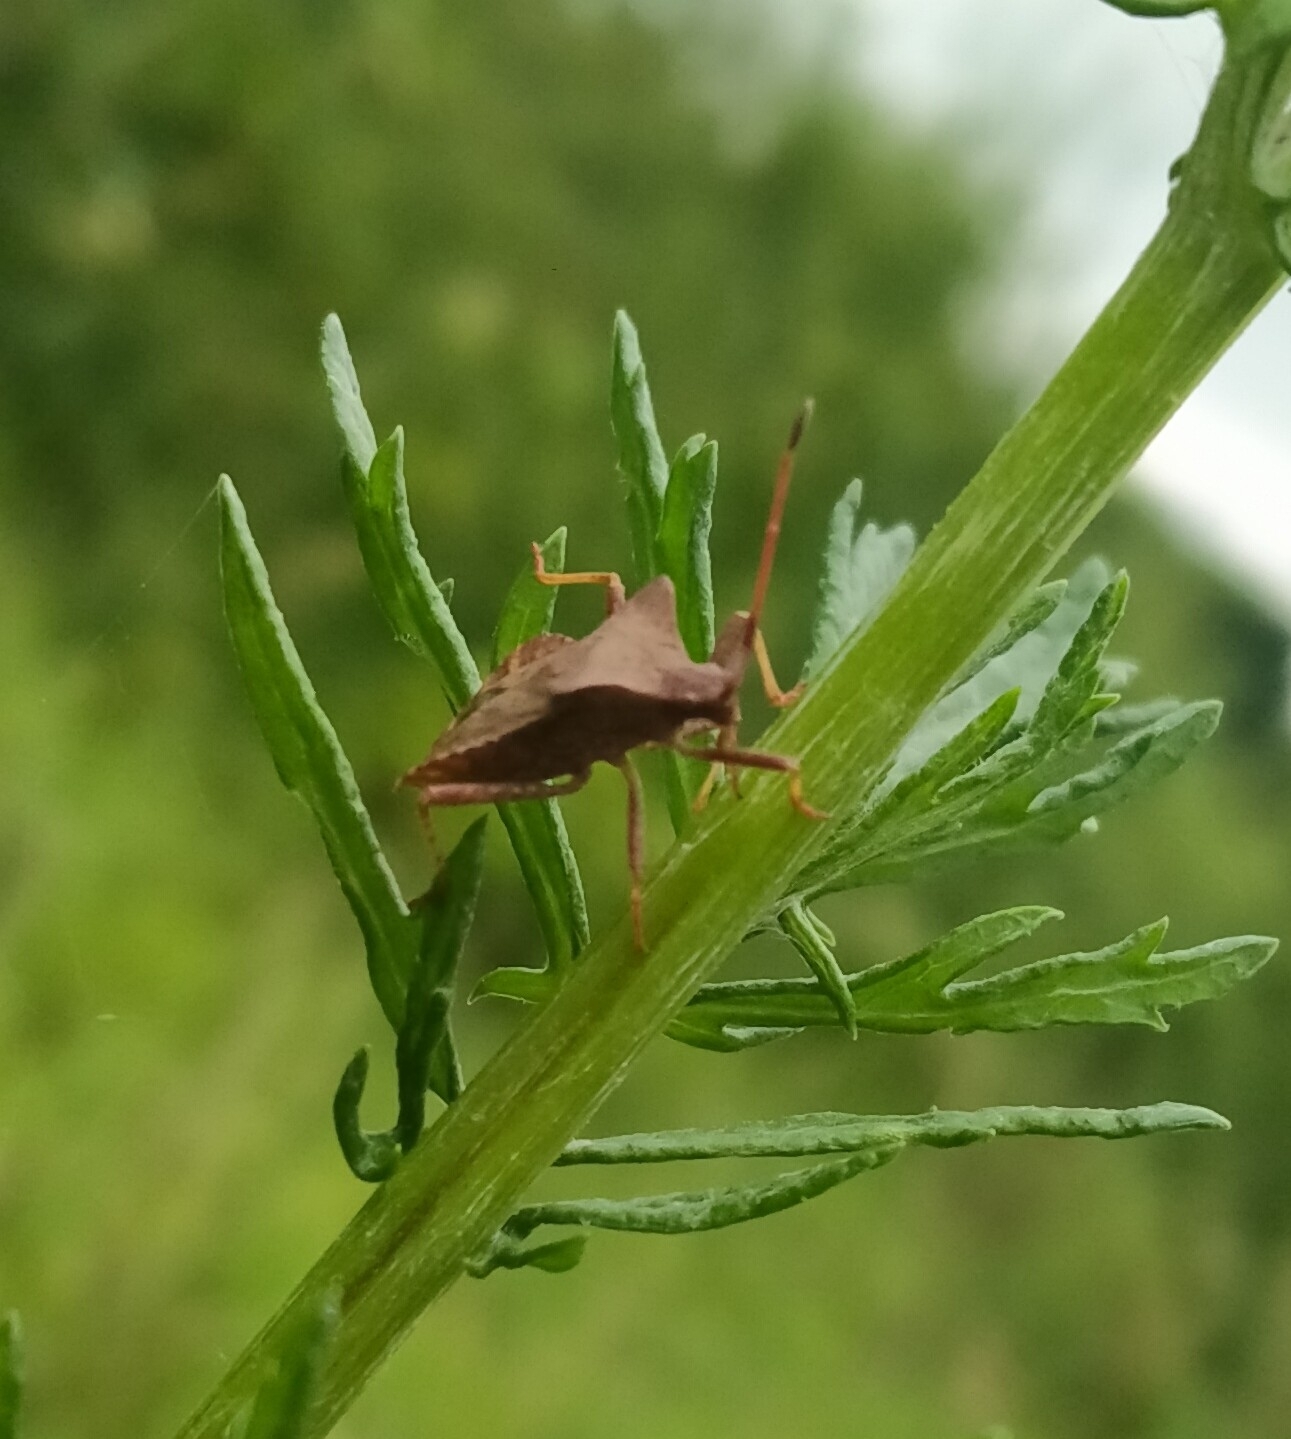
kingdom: Animalia
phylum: Arthropoda
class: Insecta
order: Hemiptera
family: Coreidae
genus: Coreus
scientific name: Coreus marginatus
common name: Dock bug
